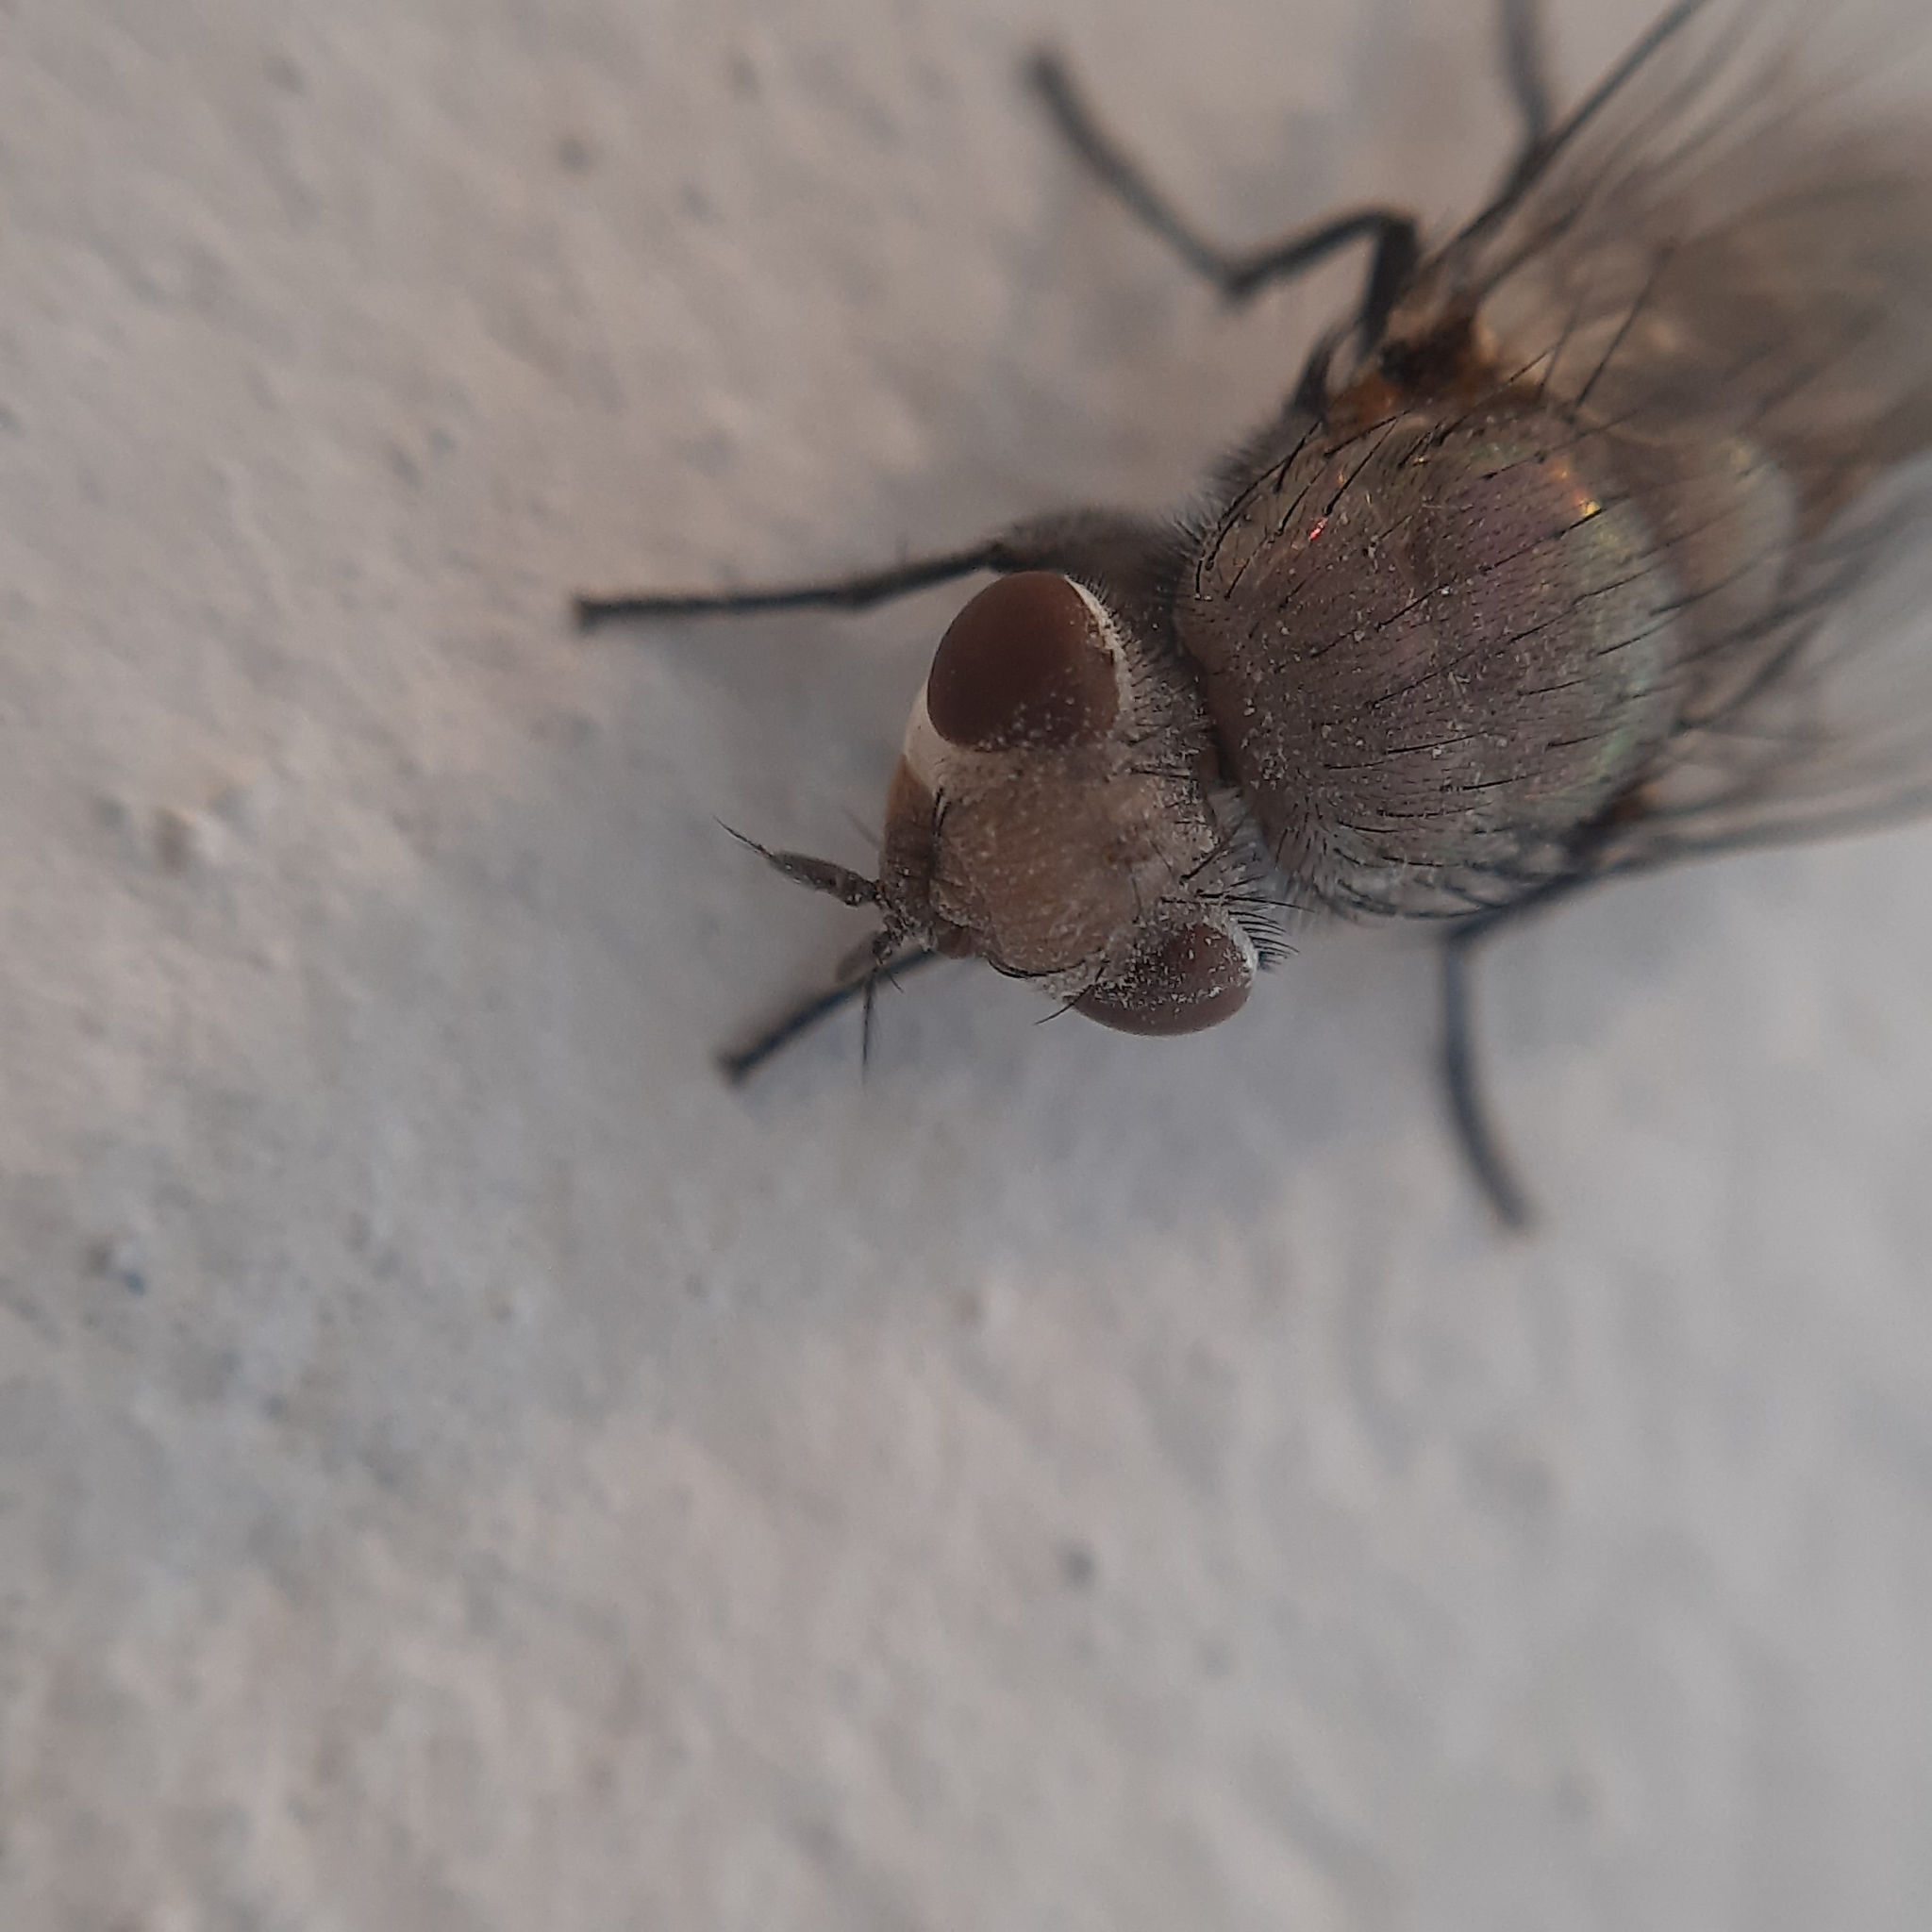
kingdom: Animalia
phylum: Arthropoda
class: Insecta
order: Diptera
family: Calliphoridae
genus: Lucilia
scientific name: Lucilia
